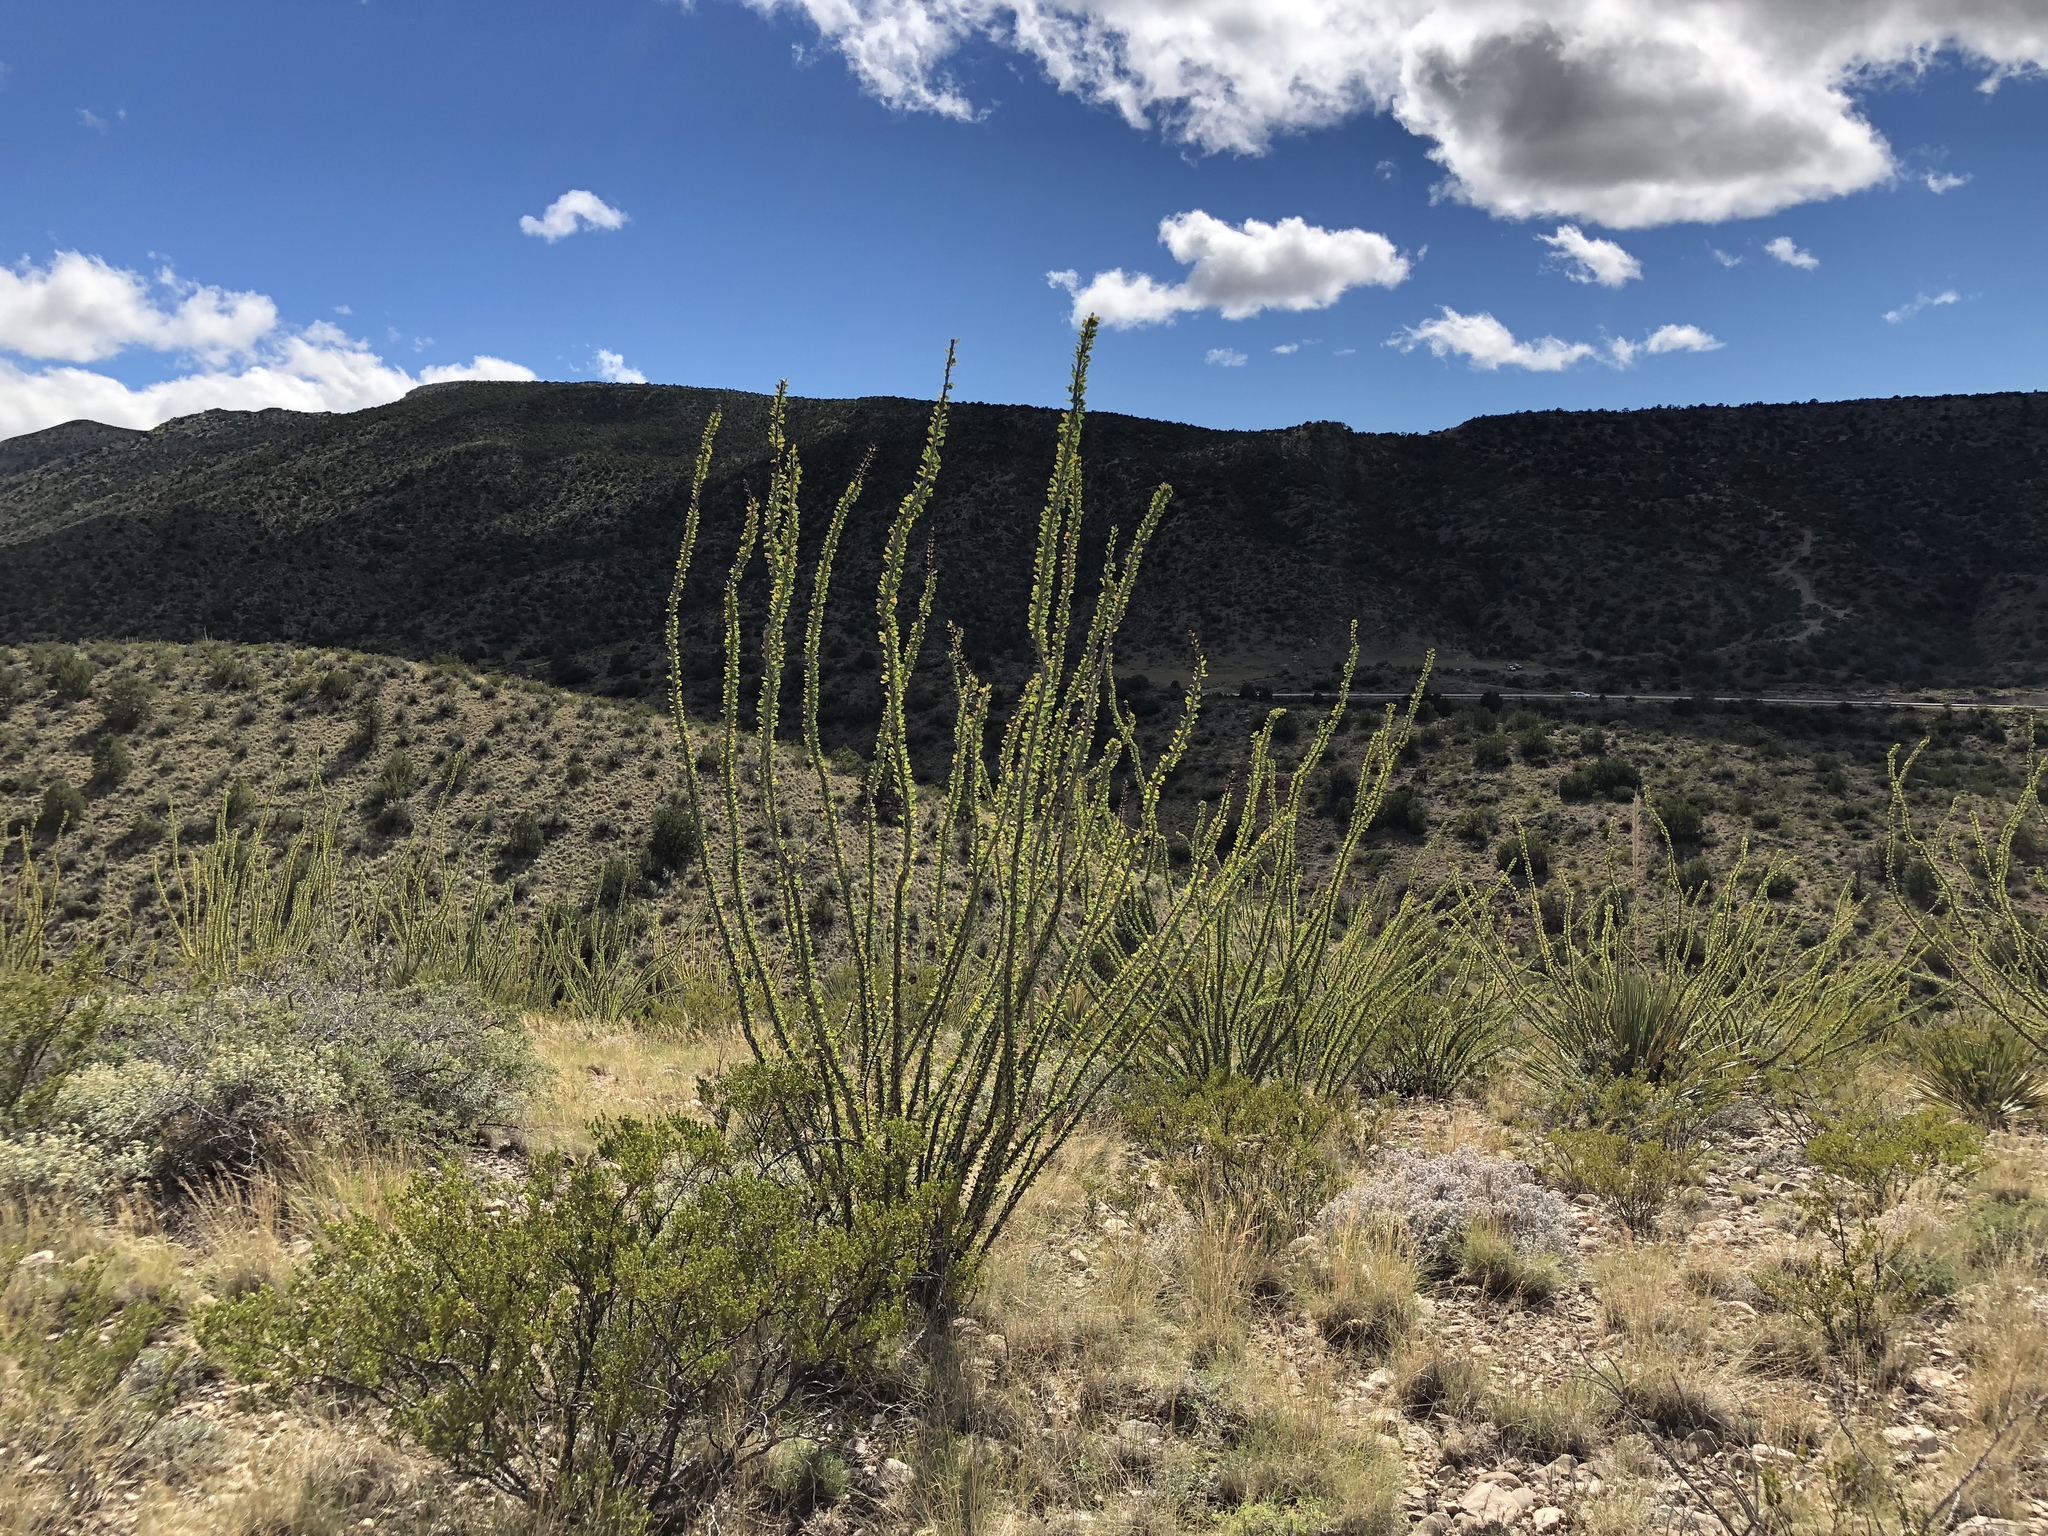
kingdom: Plantae
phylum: Tracheophyta
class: Magnoliopsida
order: Ericales
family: Fouquieriaceae
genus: Fouquieria
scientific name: Fouquieria splendens
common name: Vine-cactus
